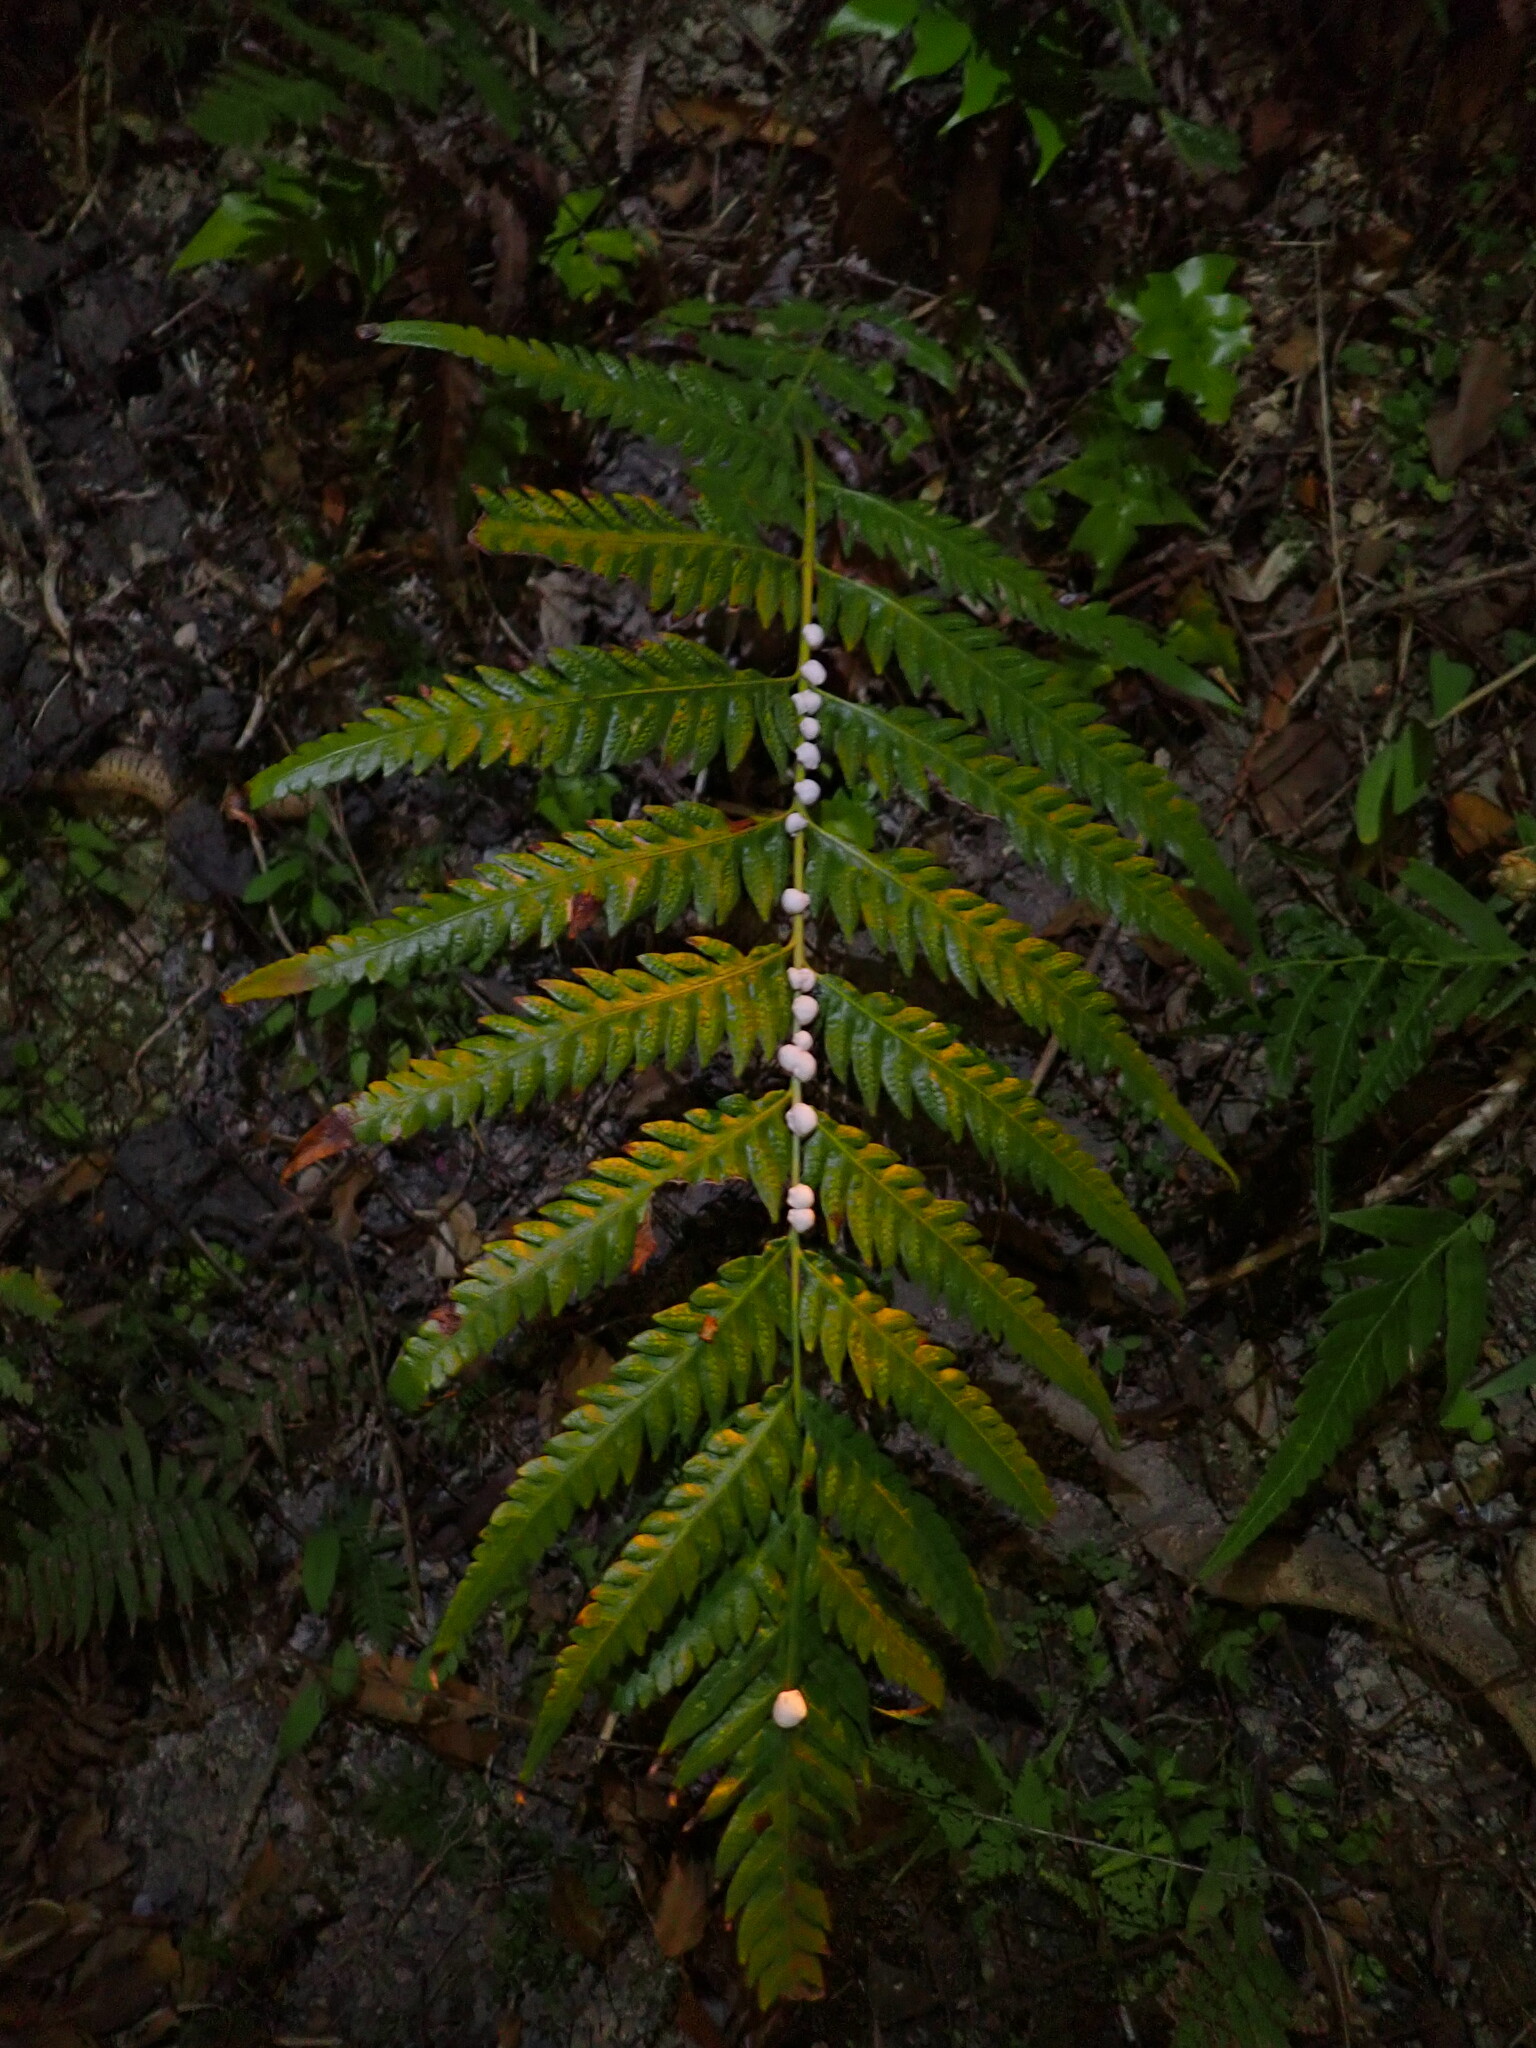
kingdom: Plantae
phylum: Tracheophyta
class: Polypodiopsida
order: Polypodiales
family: Blechnaceae
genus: Woodwardia
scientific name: Woodwardia japonica
